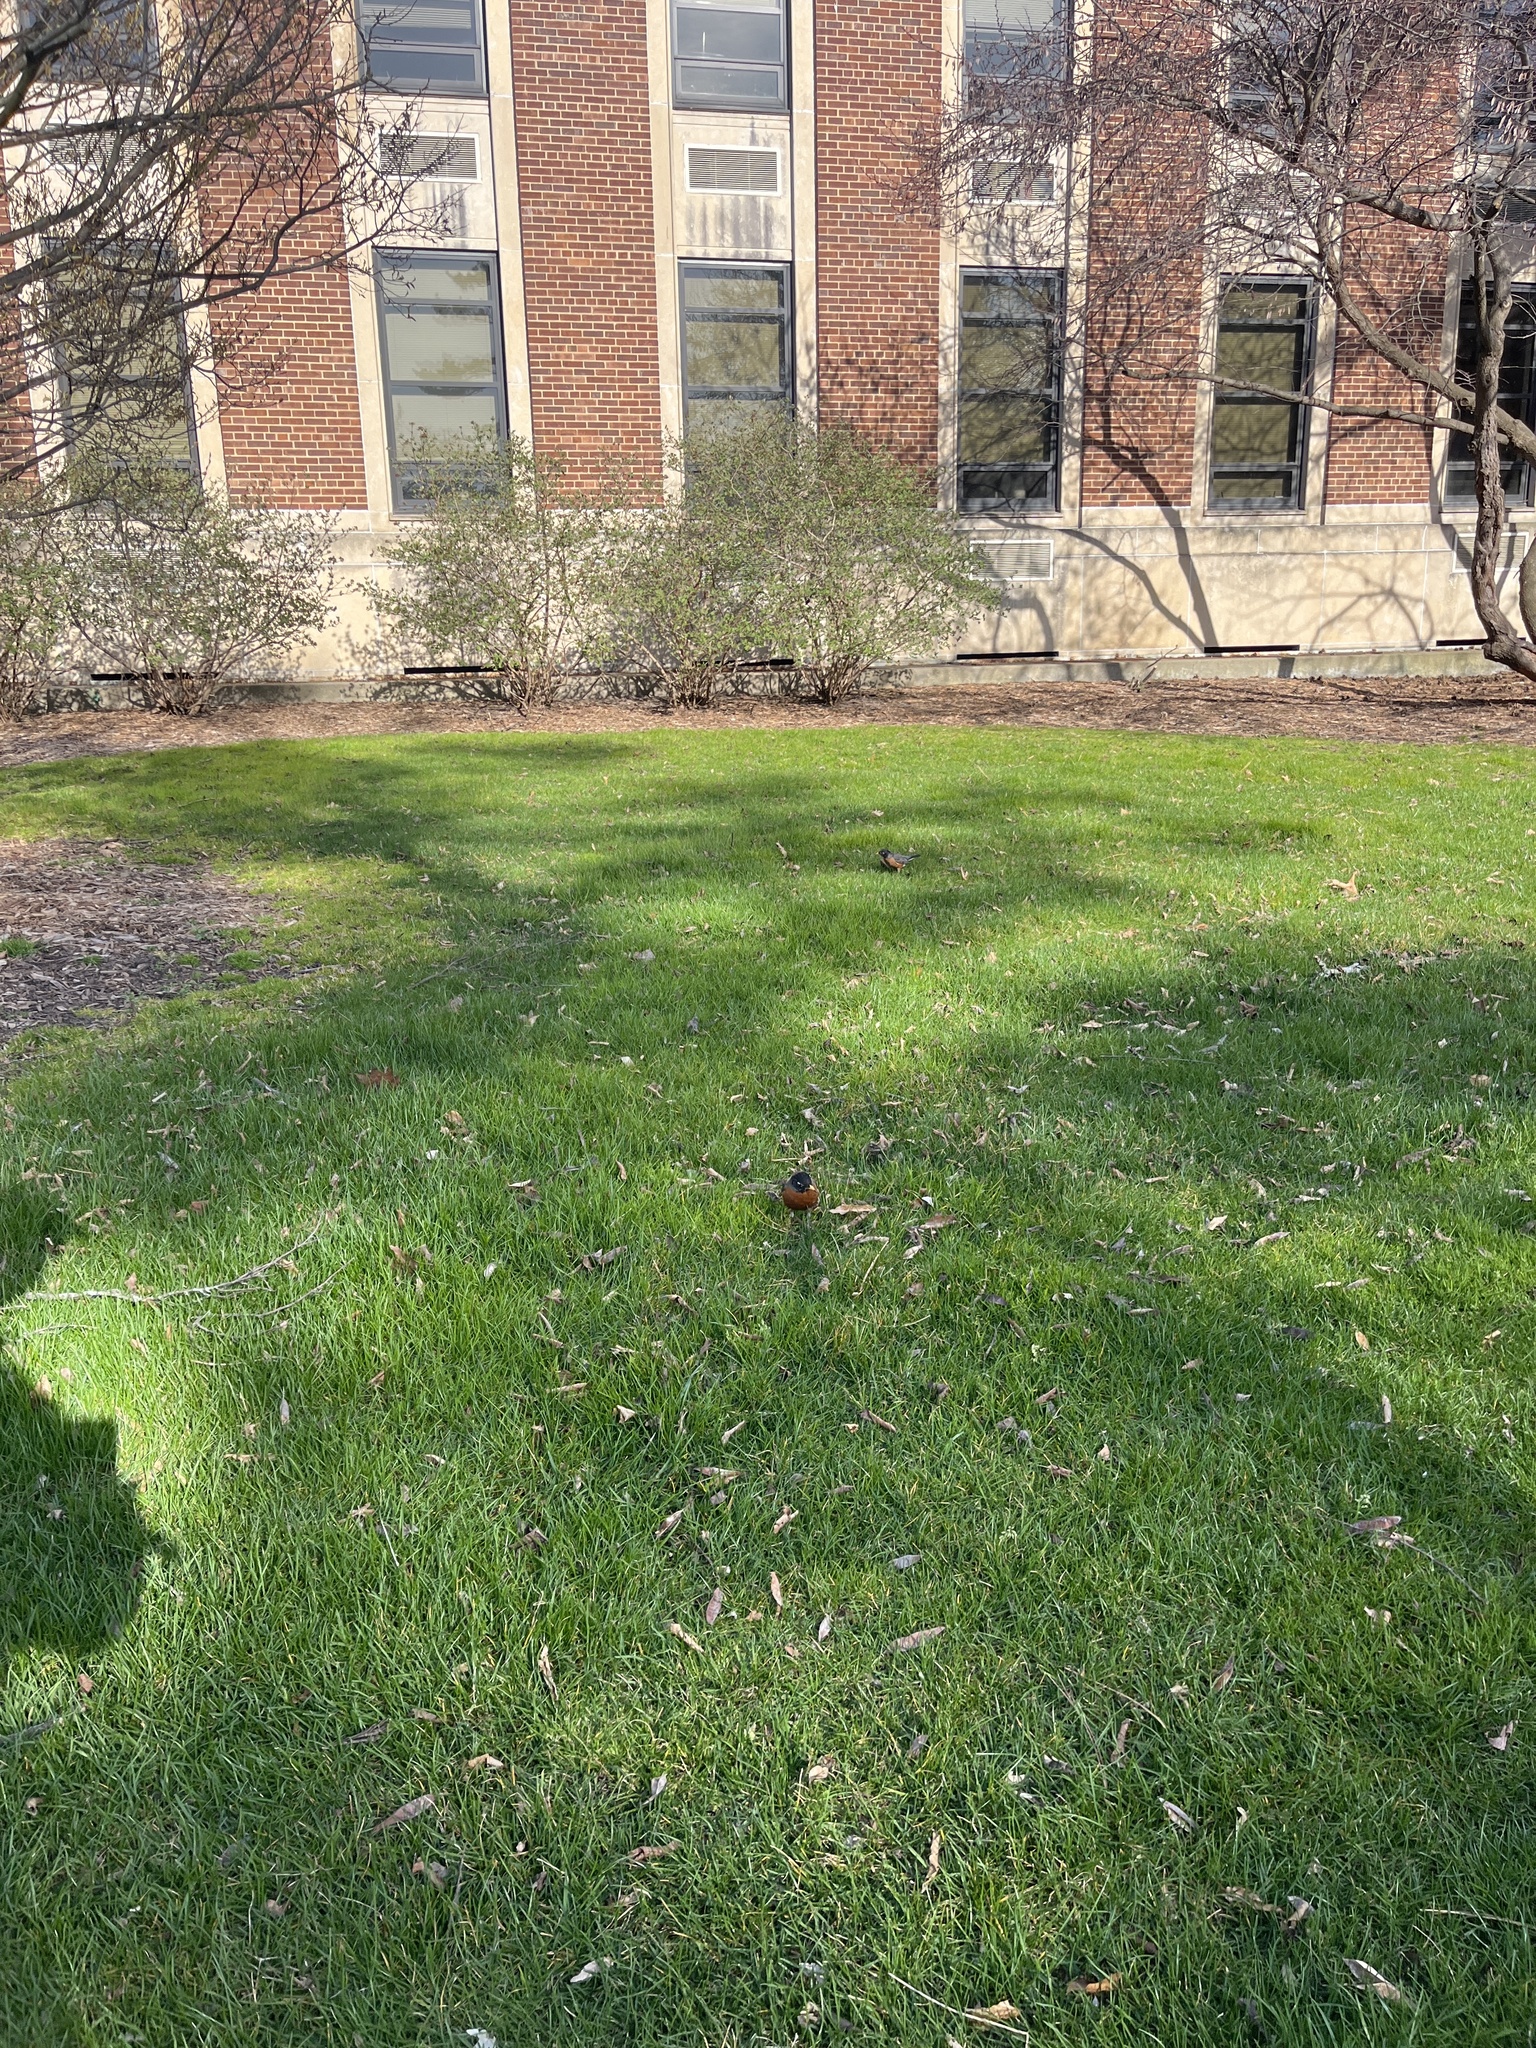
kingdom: Animalia
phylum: Chordata
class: Aves
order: Passeriformes
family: Turdidae
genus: Turdus
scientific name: Turdus migratorius
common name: American robin
